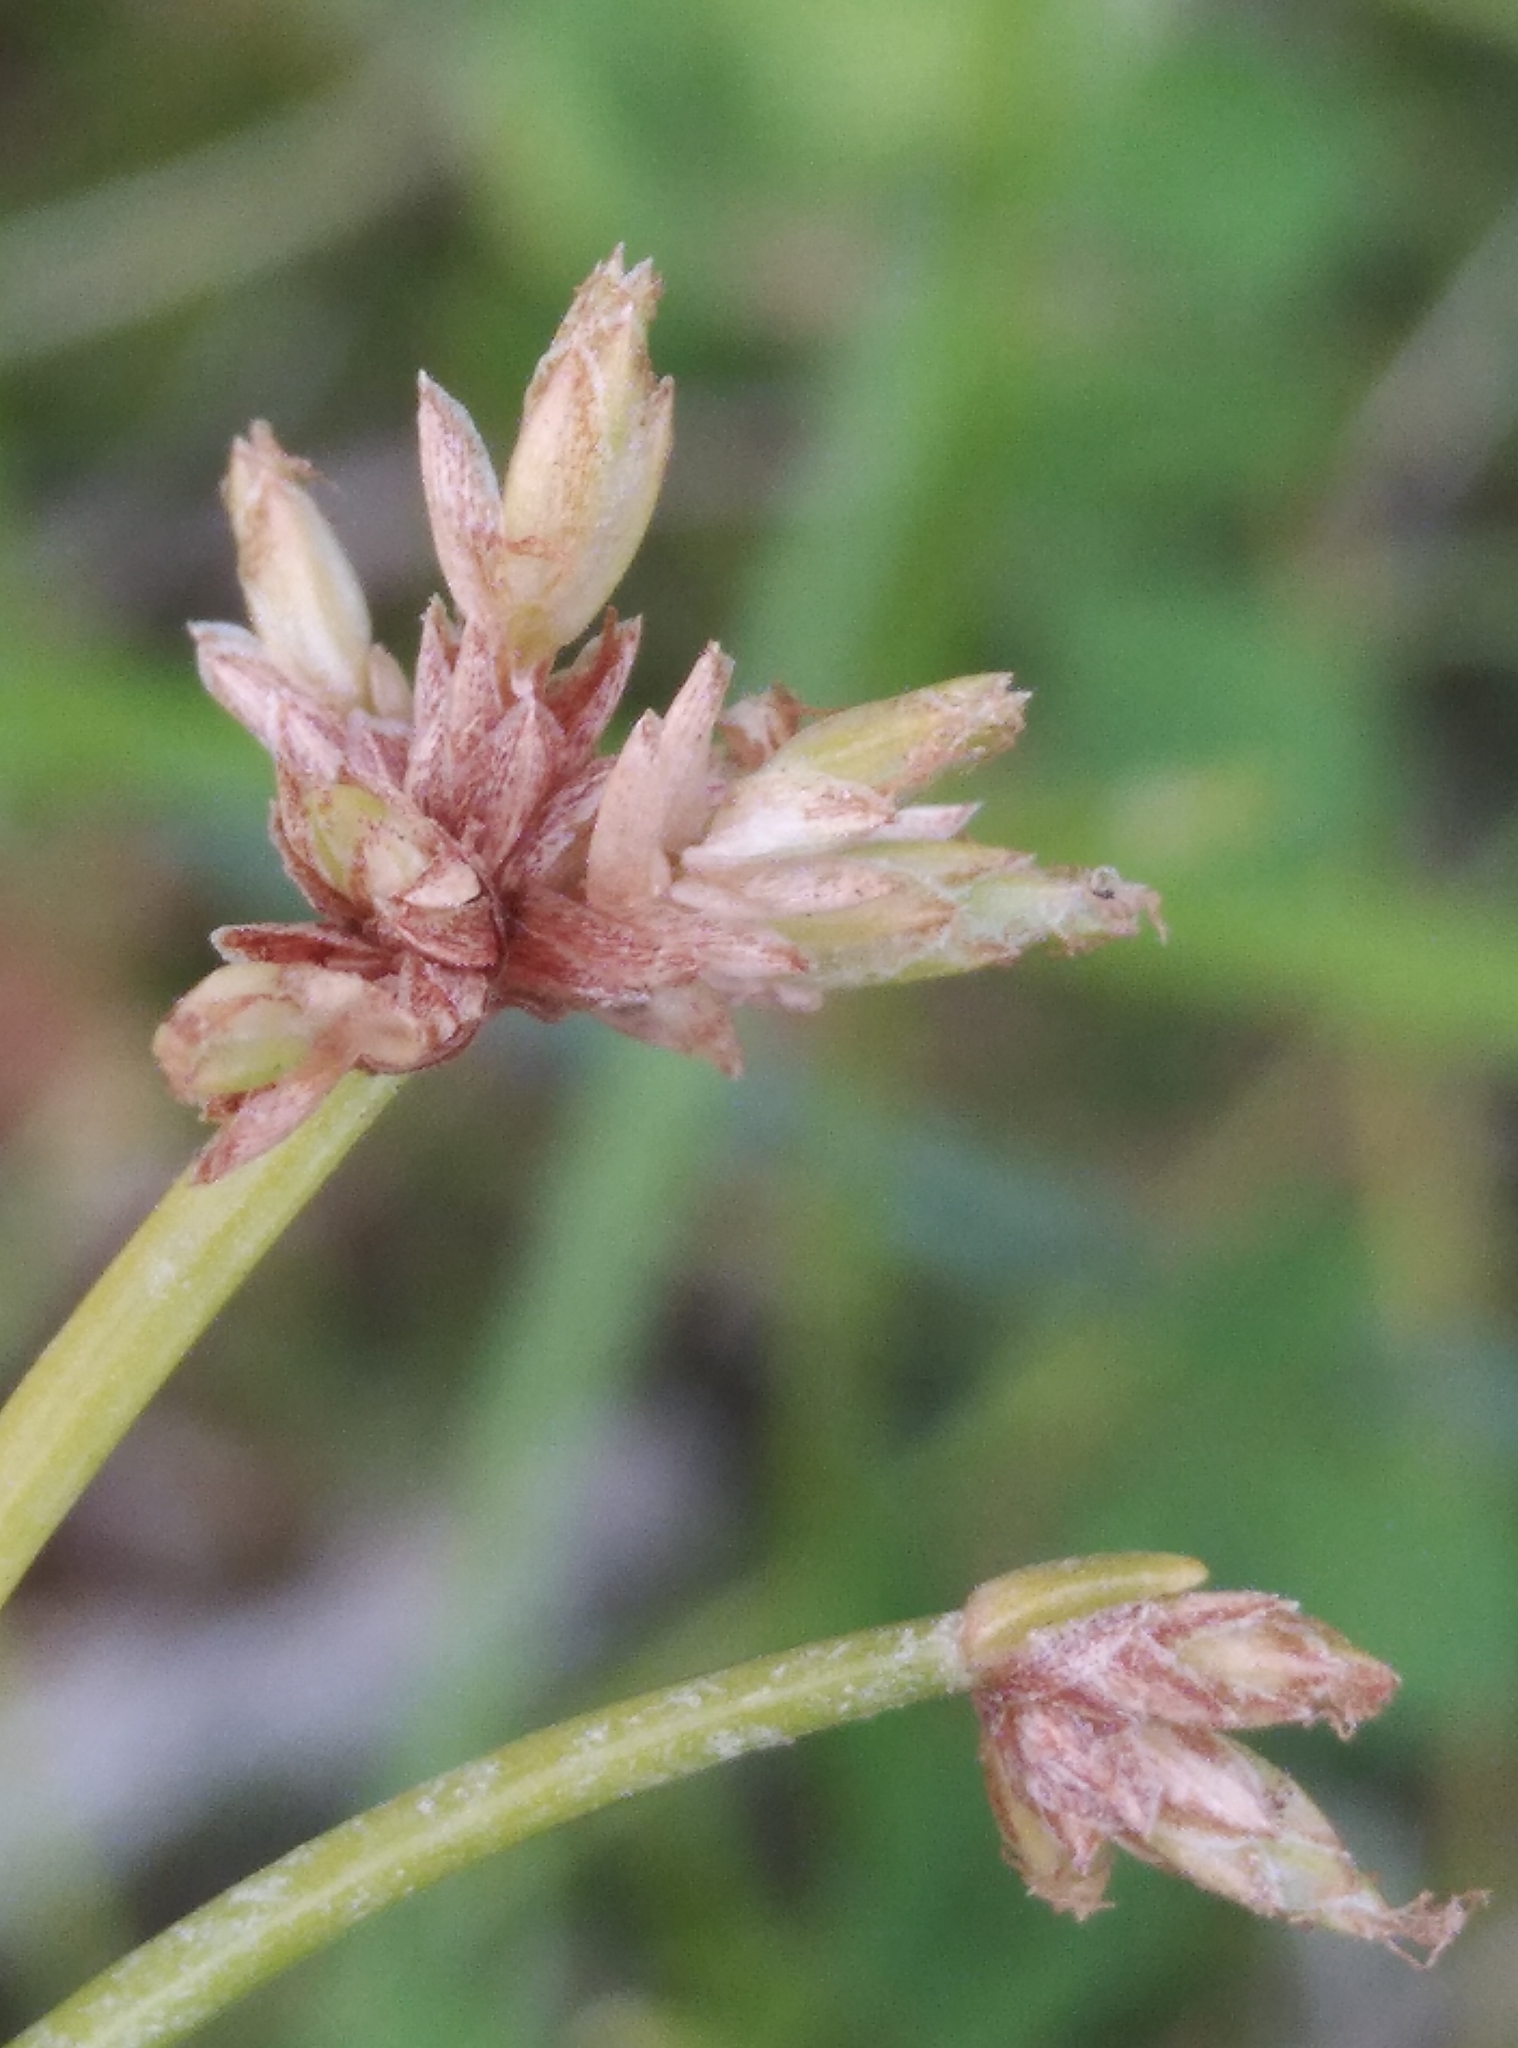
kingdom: Plantae
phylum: Tracheophyta
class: Liliopsida
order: Poales
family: Cyperaceae
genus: Isolepis
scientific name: Isolepis prolifera
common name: Proliferating bulrush
